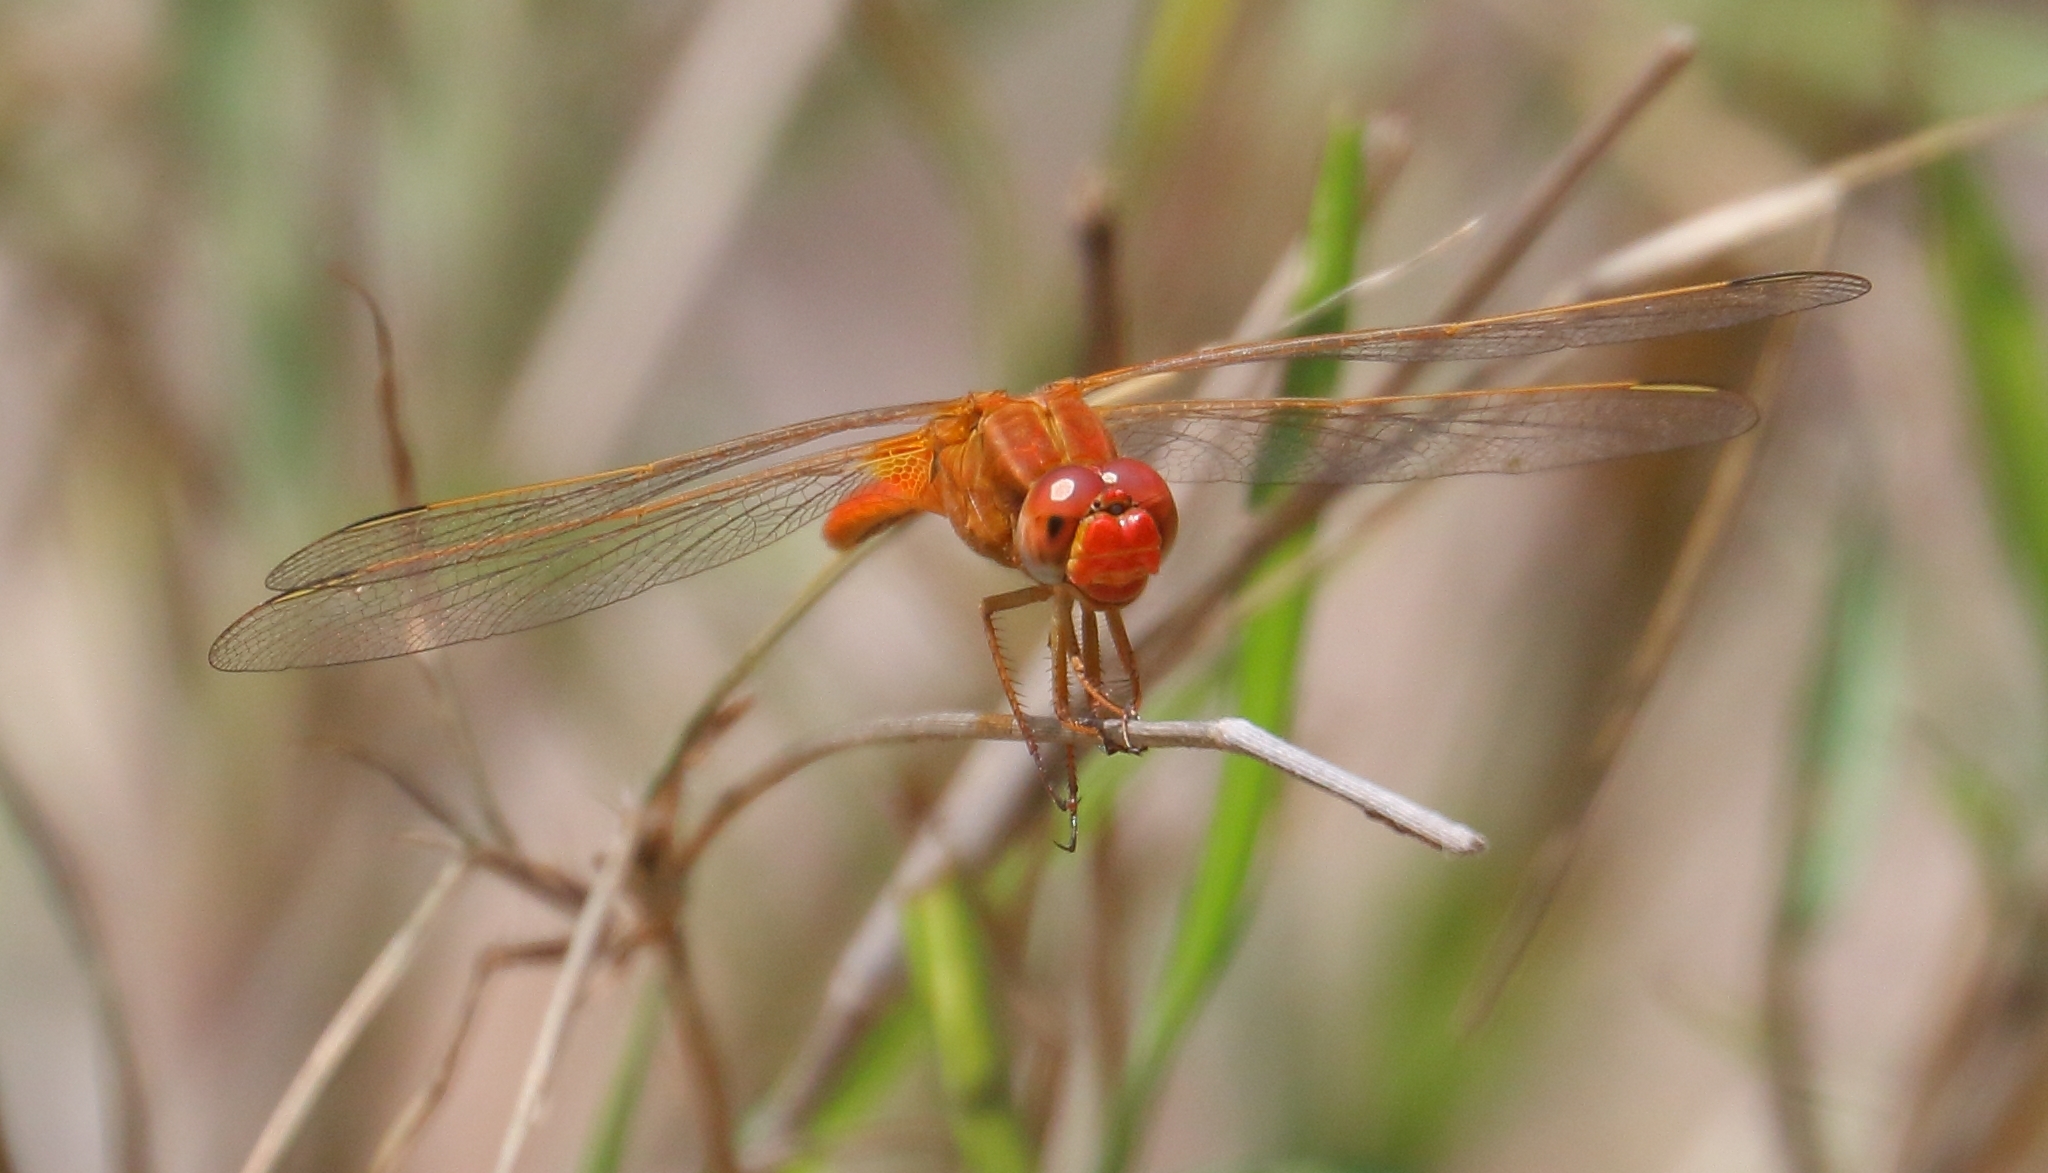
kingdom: Animalia
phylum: Arthropoda
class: Insecta
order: Odonata
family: Libellulidae
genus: Crocothemis
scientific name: Crocothemis erythraea
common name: Scarlet dragonfly
